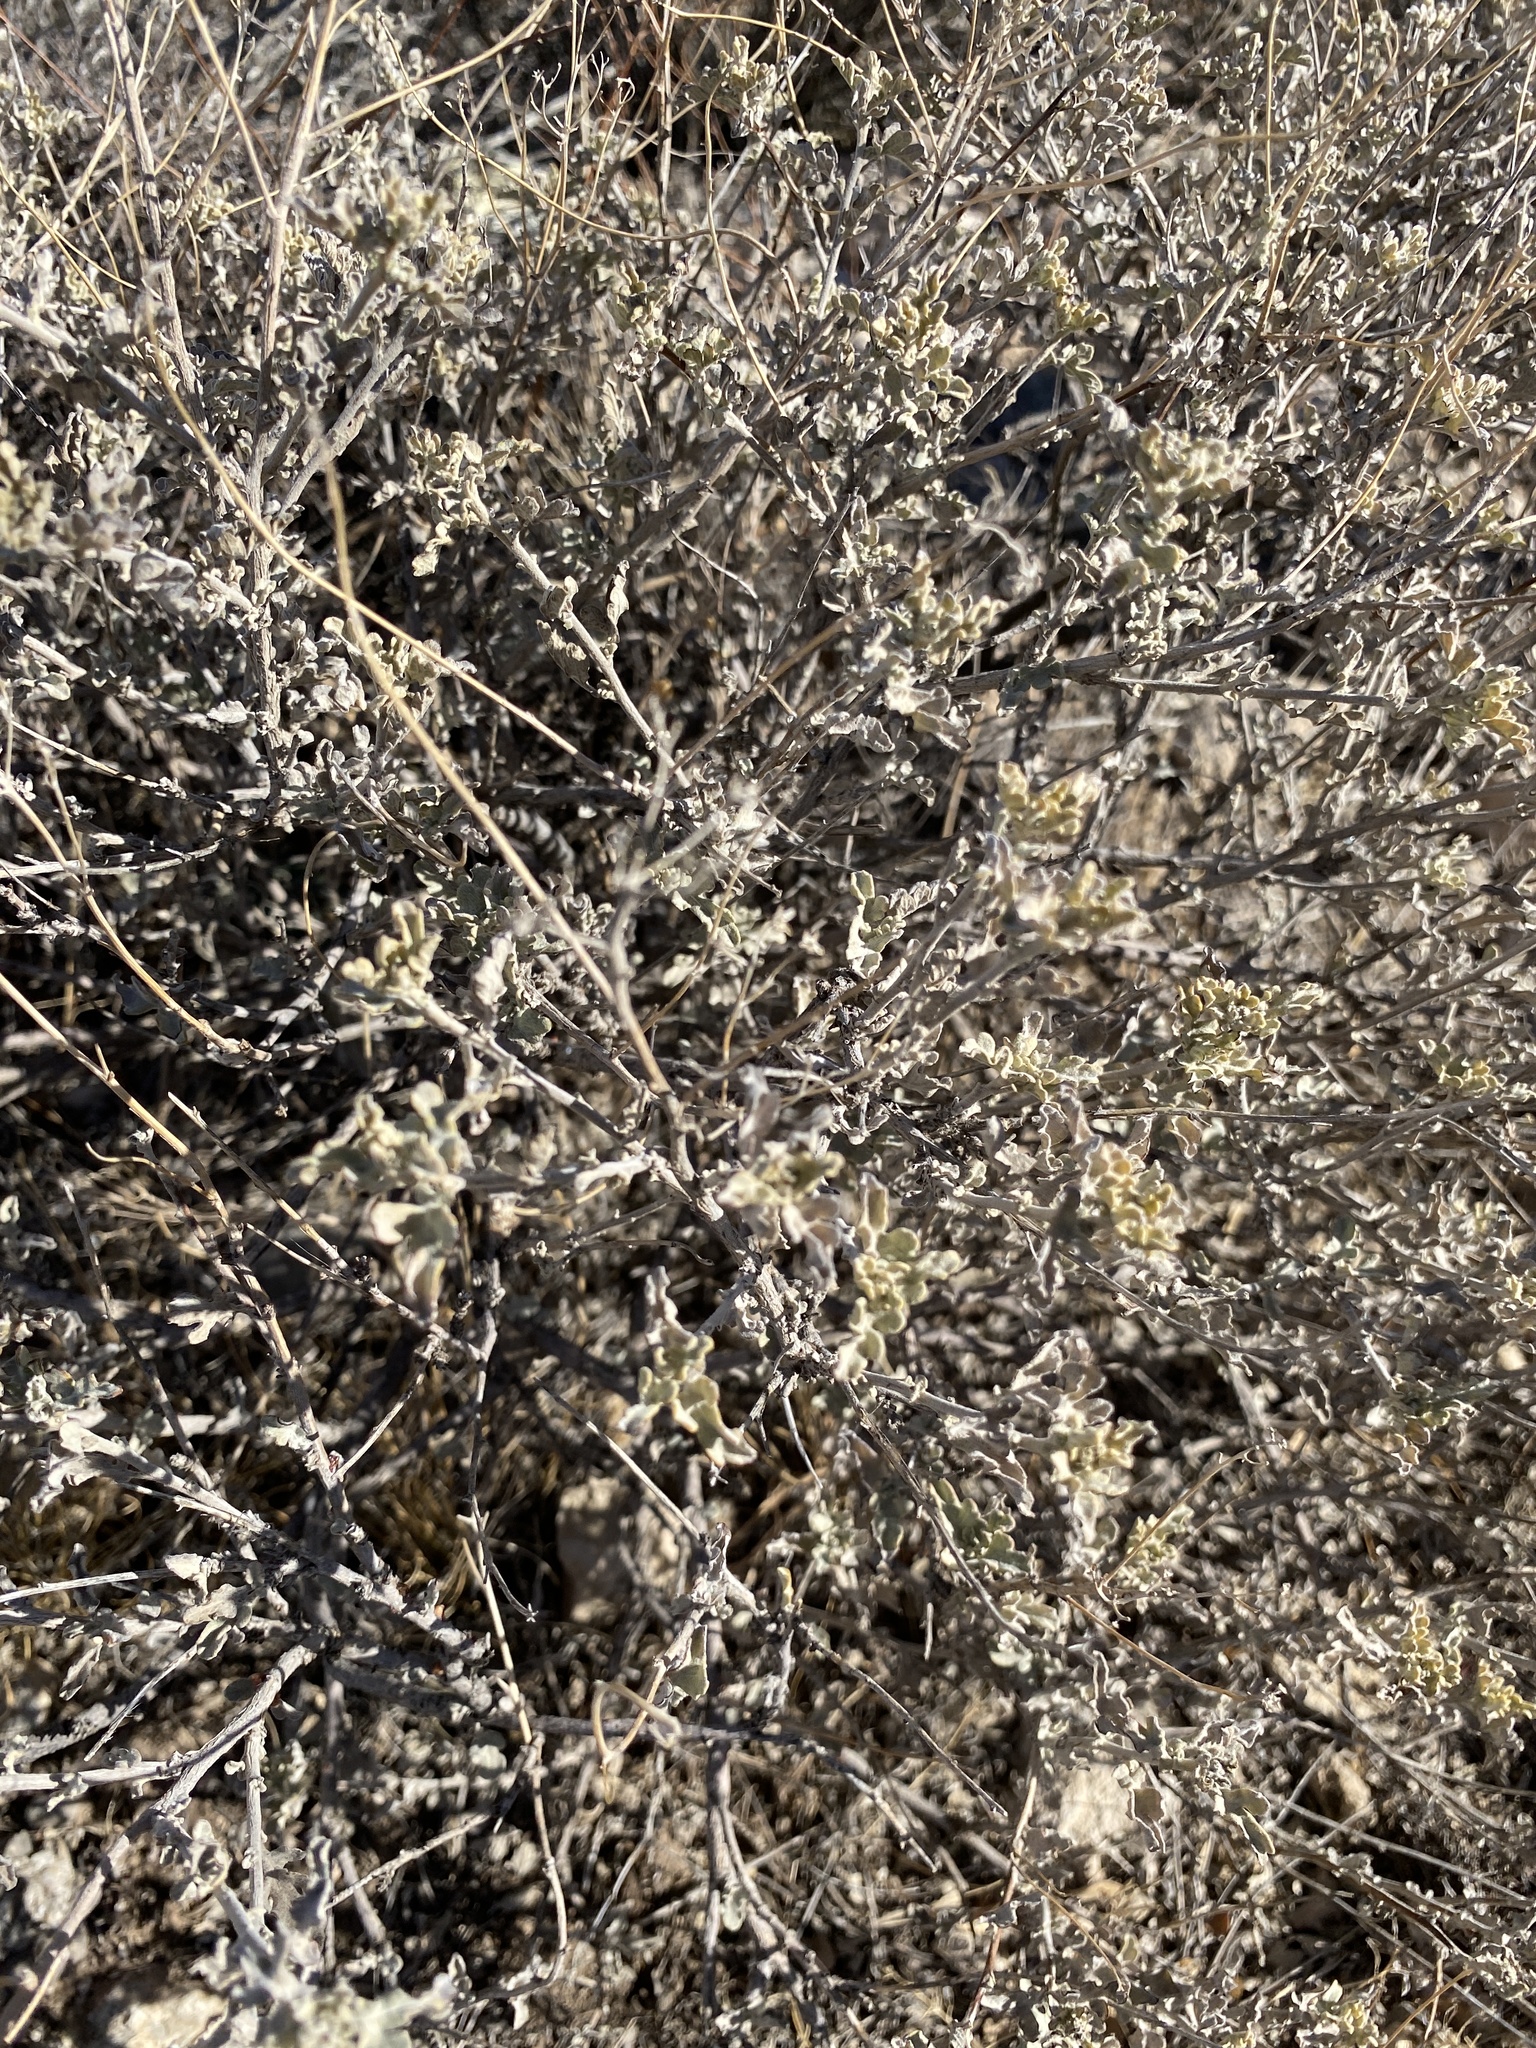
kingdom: Plantae
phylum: Tracheophyta
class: Magnoliopsida
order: Asterales
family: Asteraceae
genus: Parthenium
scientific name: Parthenium incanum
